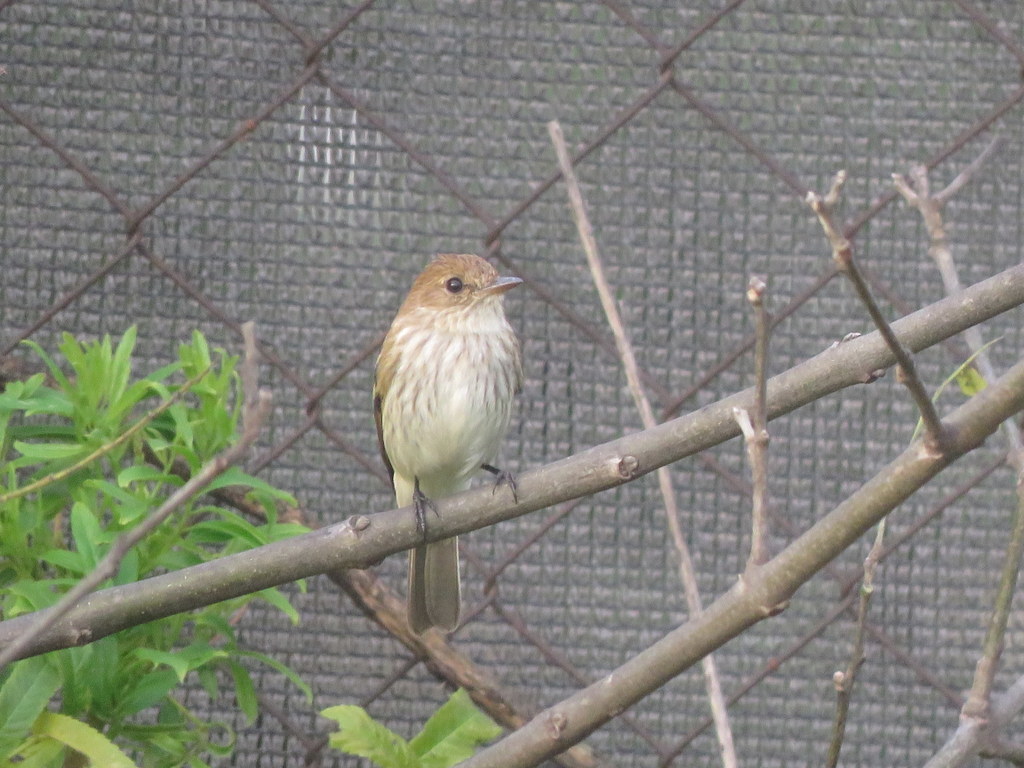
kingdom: Animalia
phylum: Chordata
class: Aves
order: Passeriformes
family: Tyrannidae
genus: Myiophobus
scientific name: Myiophobus fasciatus
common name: Bran-colored flycatcher
